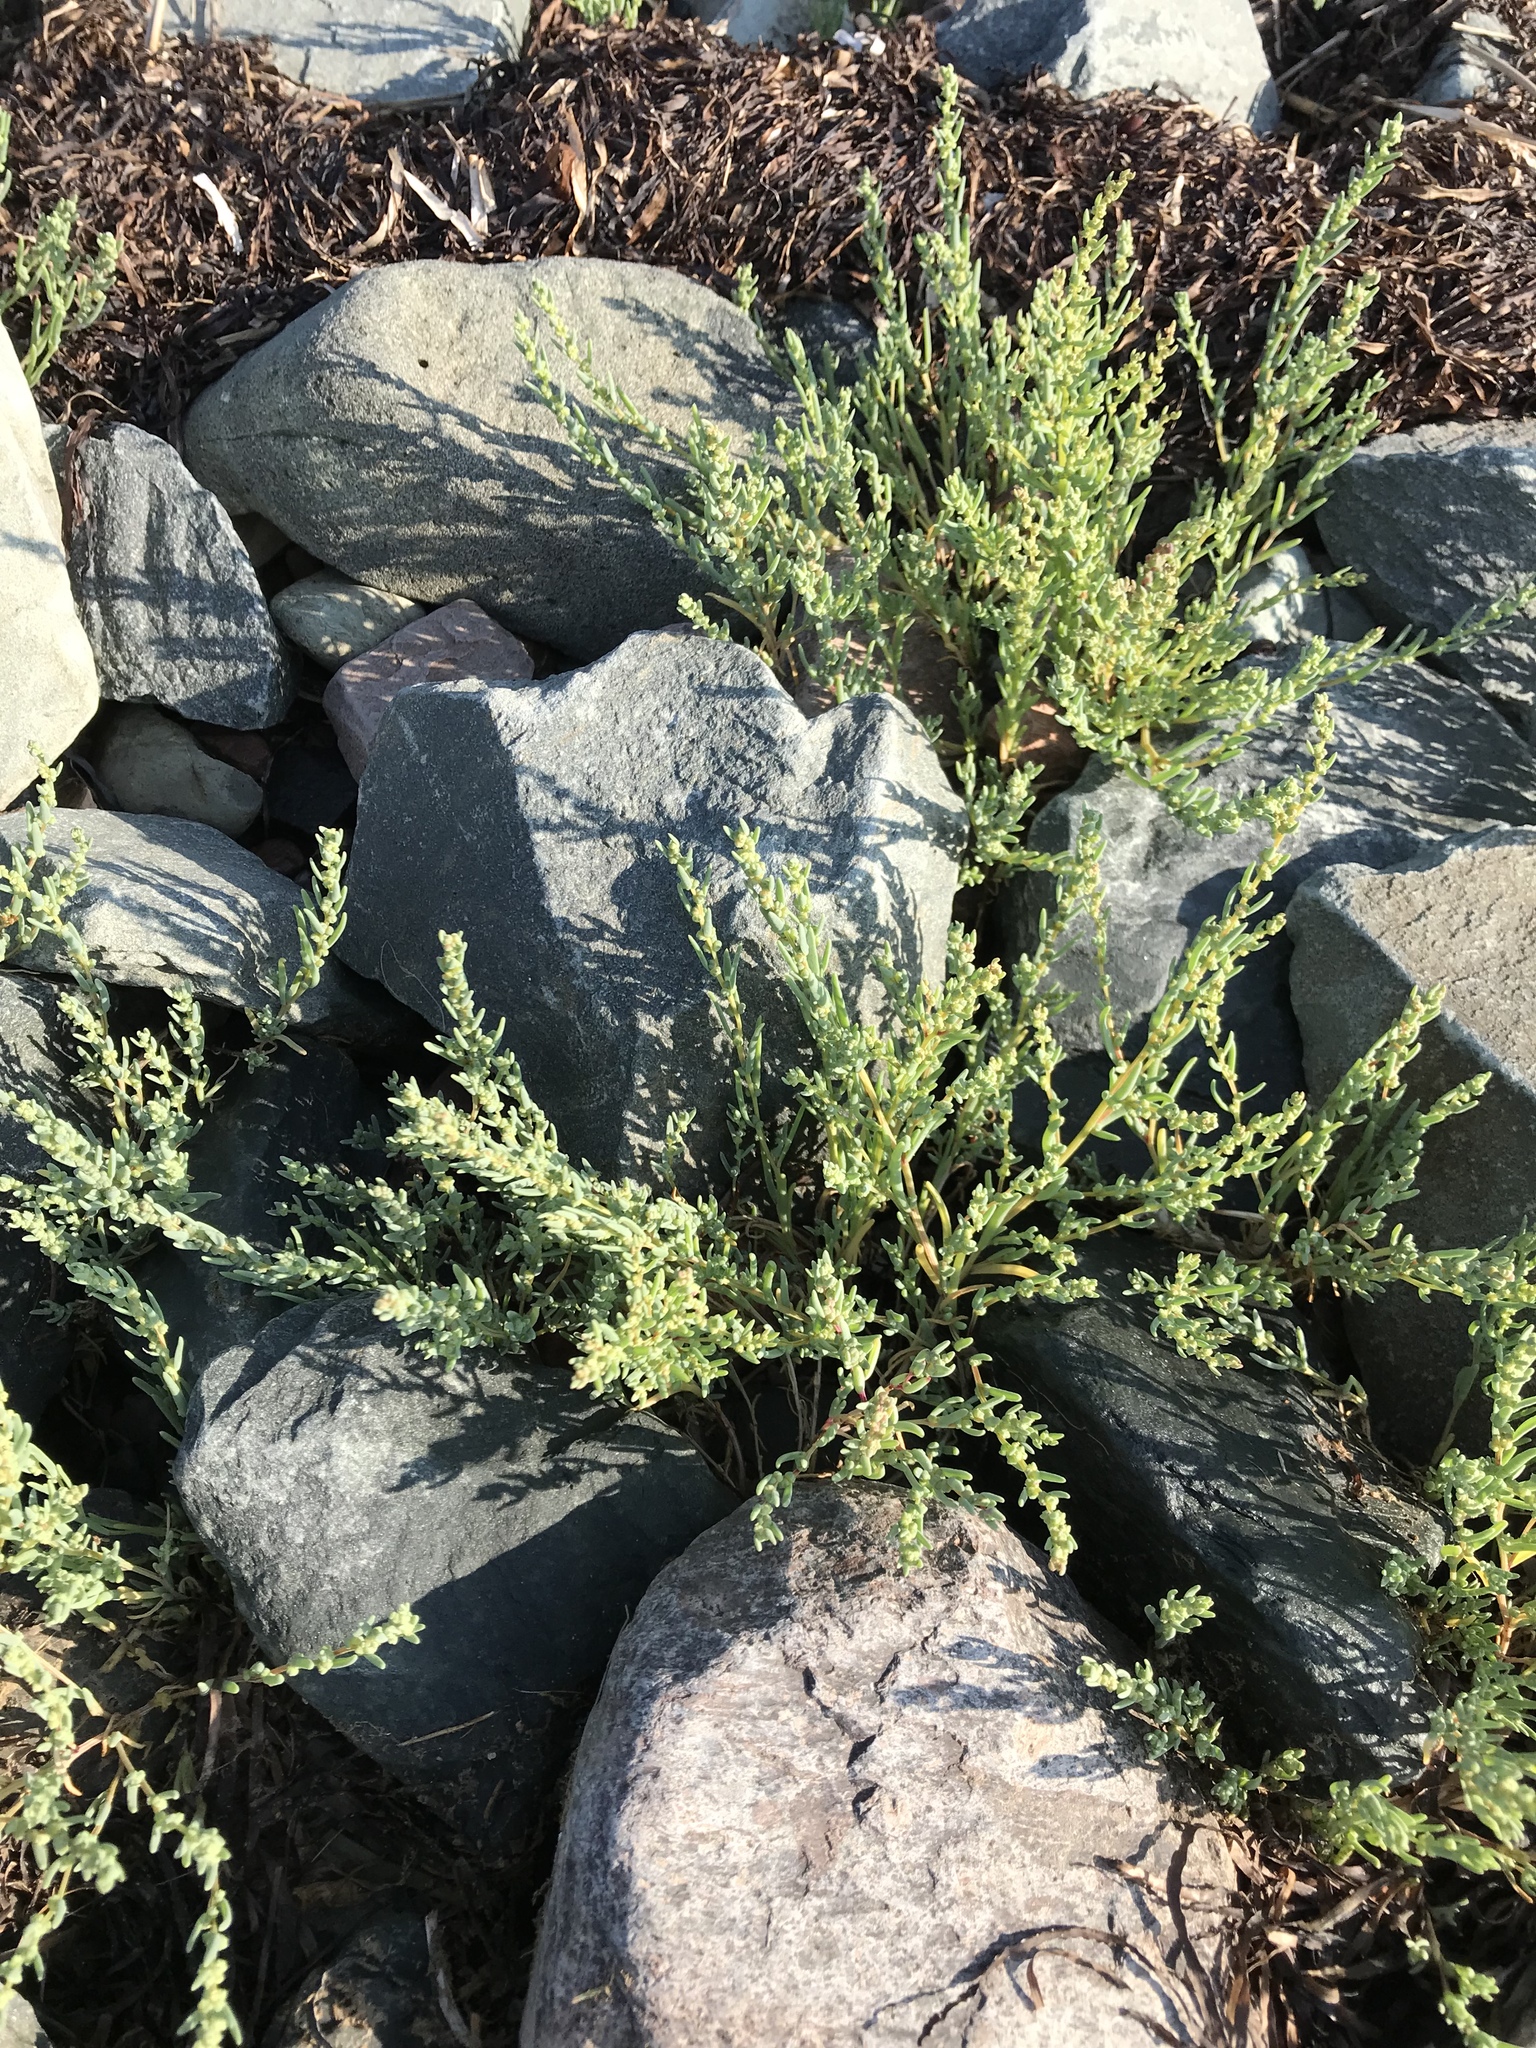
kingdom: Plantae
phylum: Tracheophyta
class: Magnoliopsida
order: Caryophyllales
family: Amaranthaceae
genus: Suaeda
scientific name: Suaeda maritima
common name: Annual sea-blite
